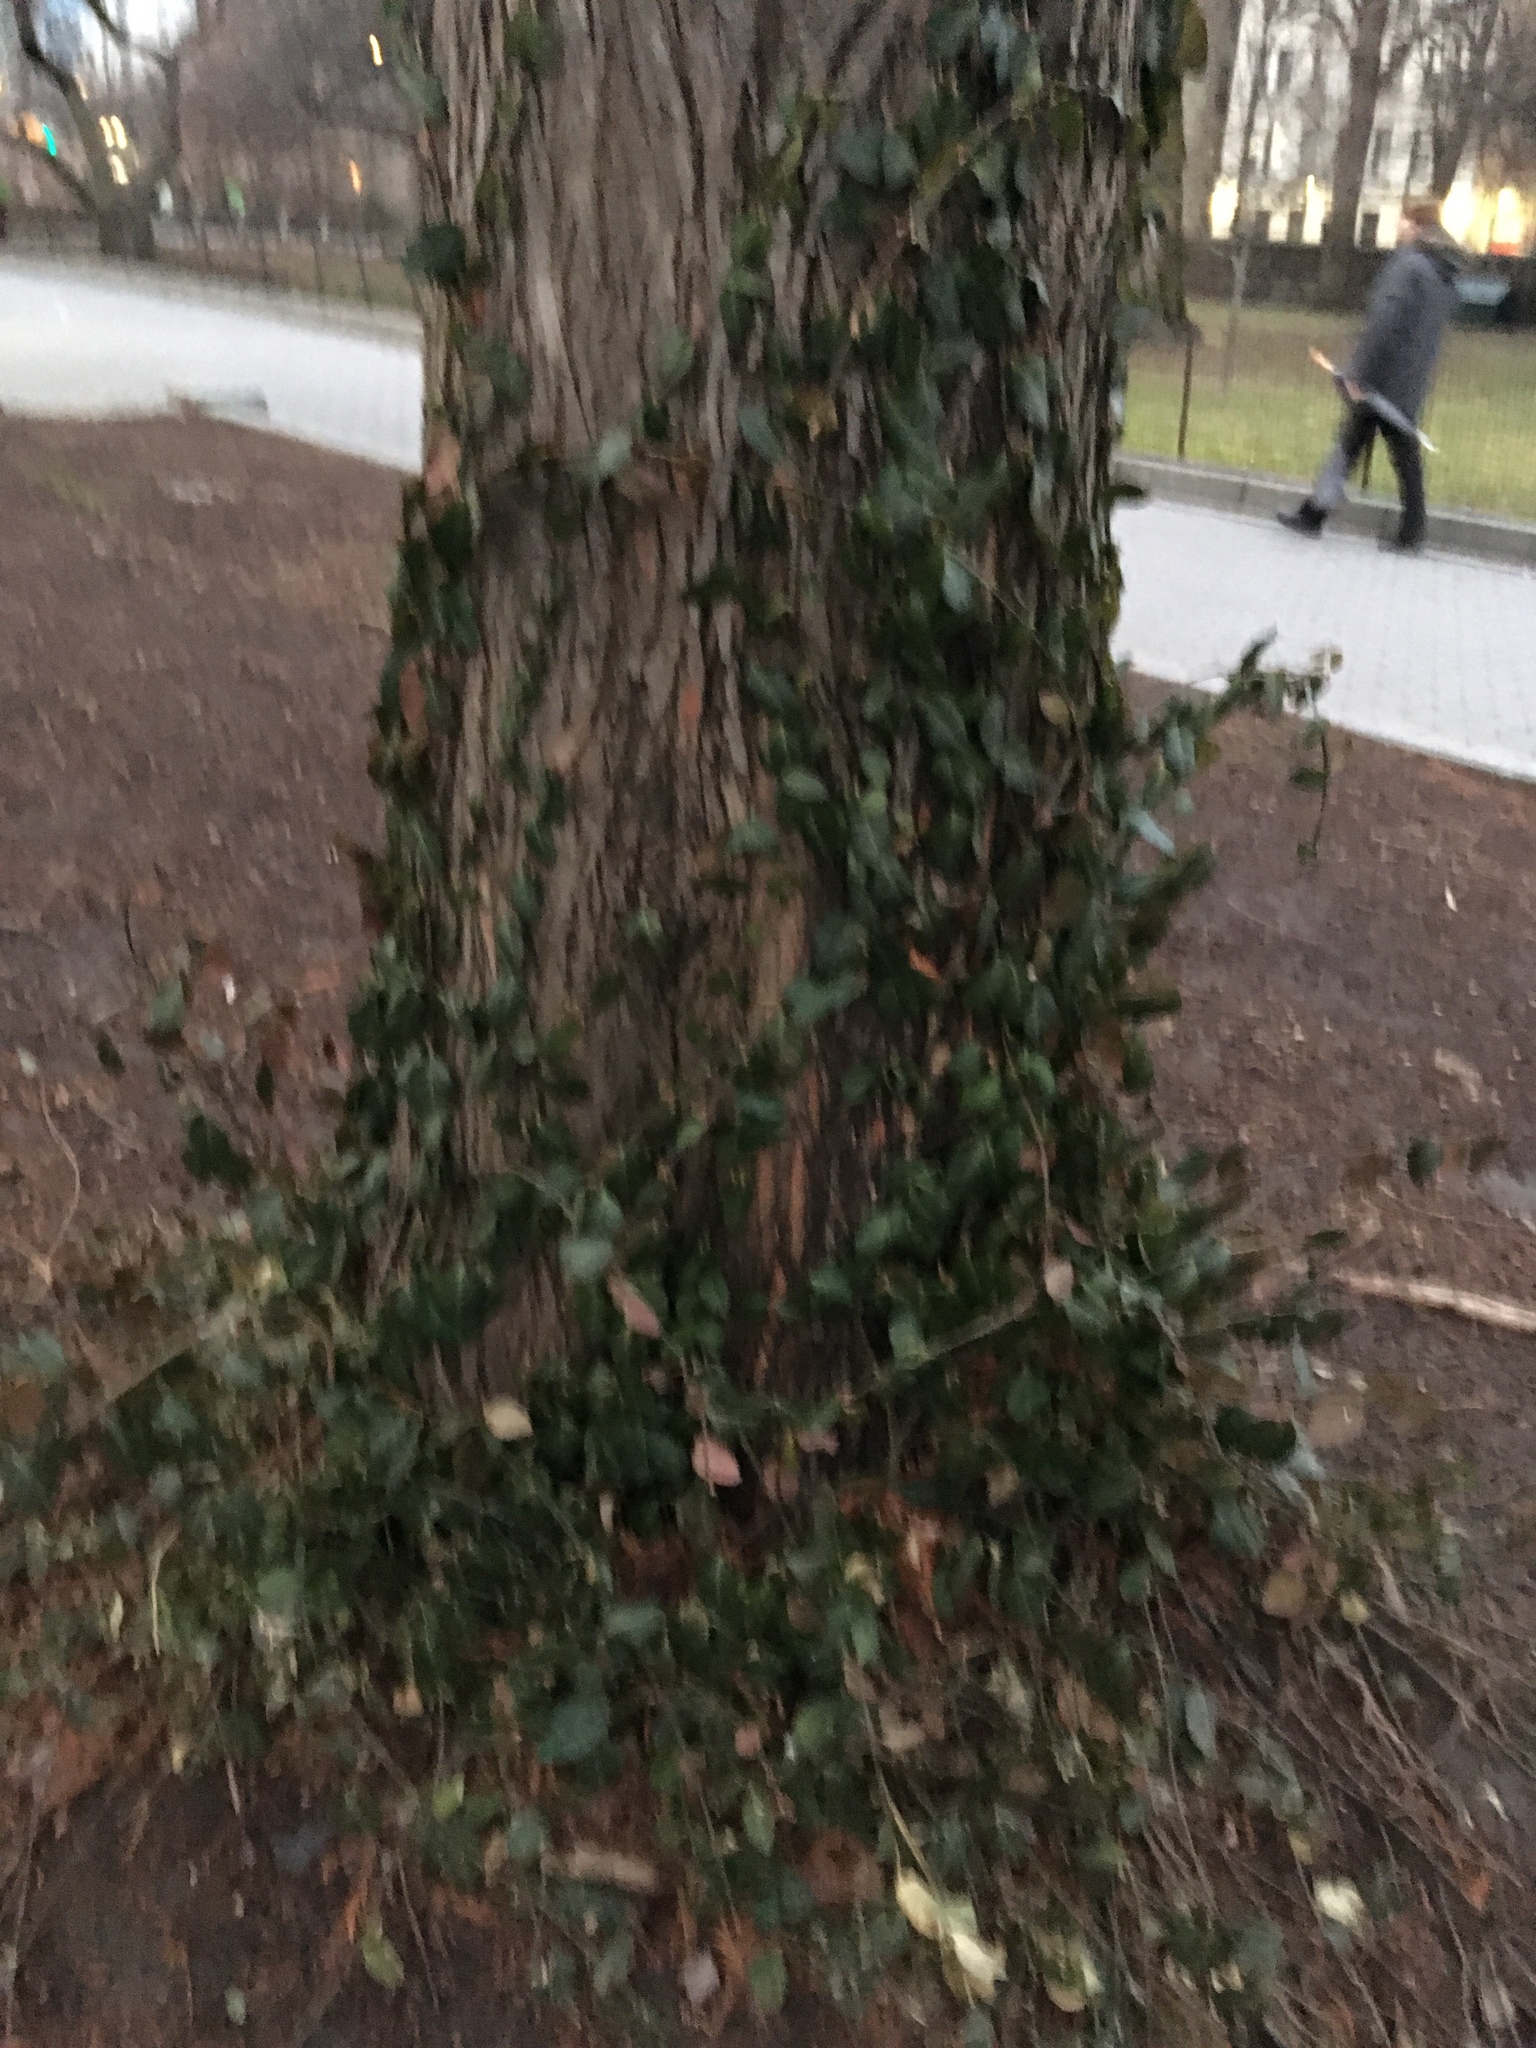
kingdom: Plantae
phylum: Tracheophyta
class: Magnoliopsida
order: Celastrales
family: Celastraceae
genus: Euonymus
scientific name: Euonymus fortunei
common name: Climbing euonymus
